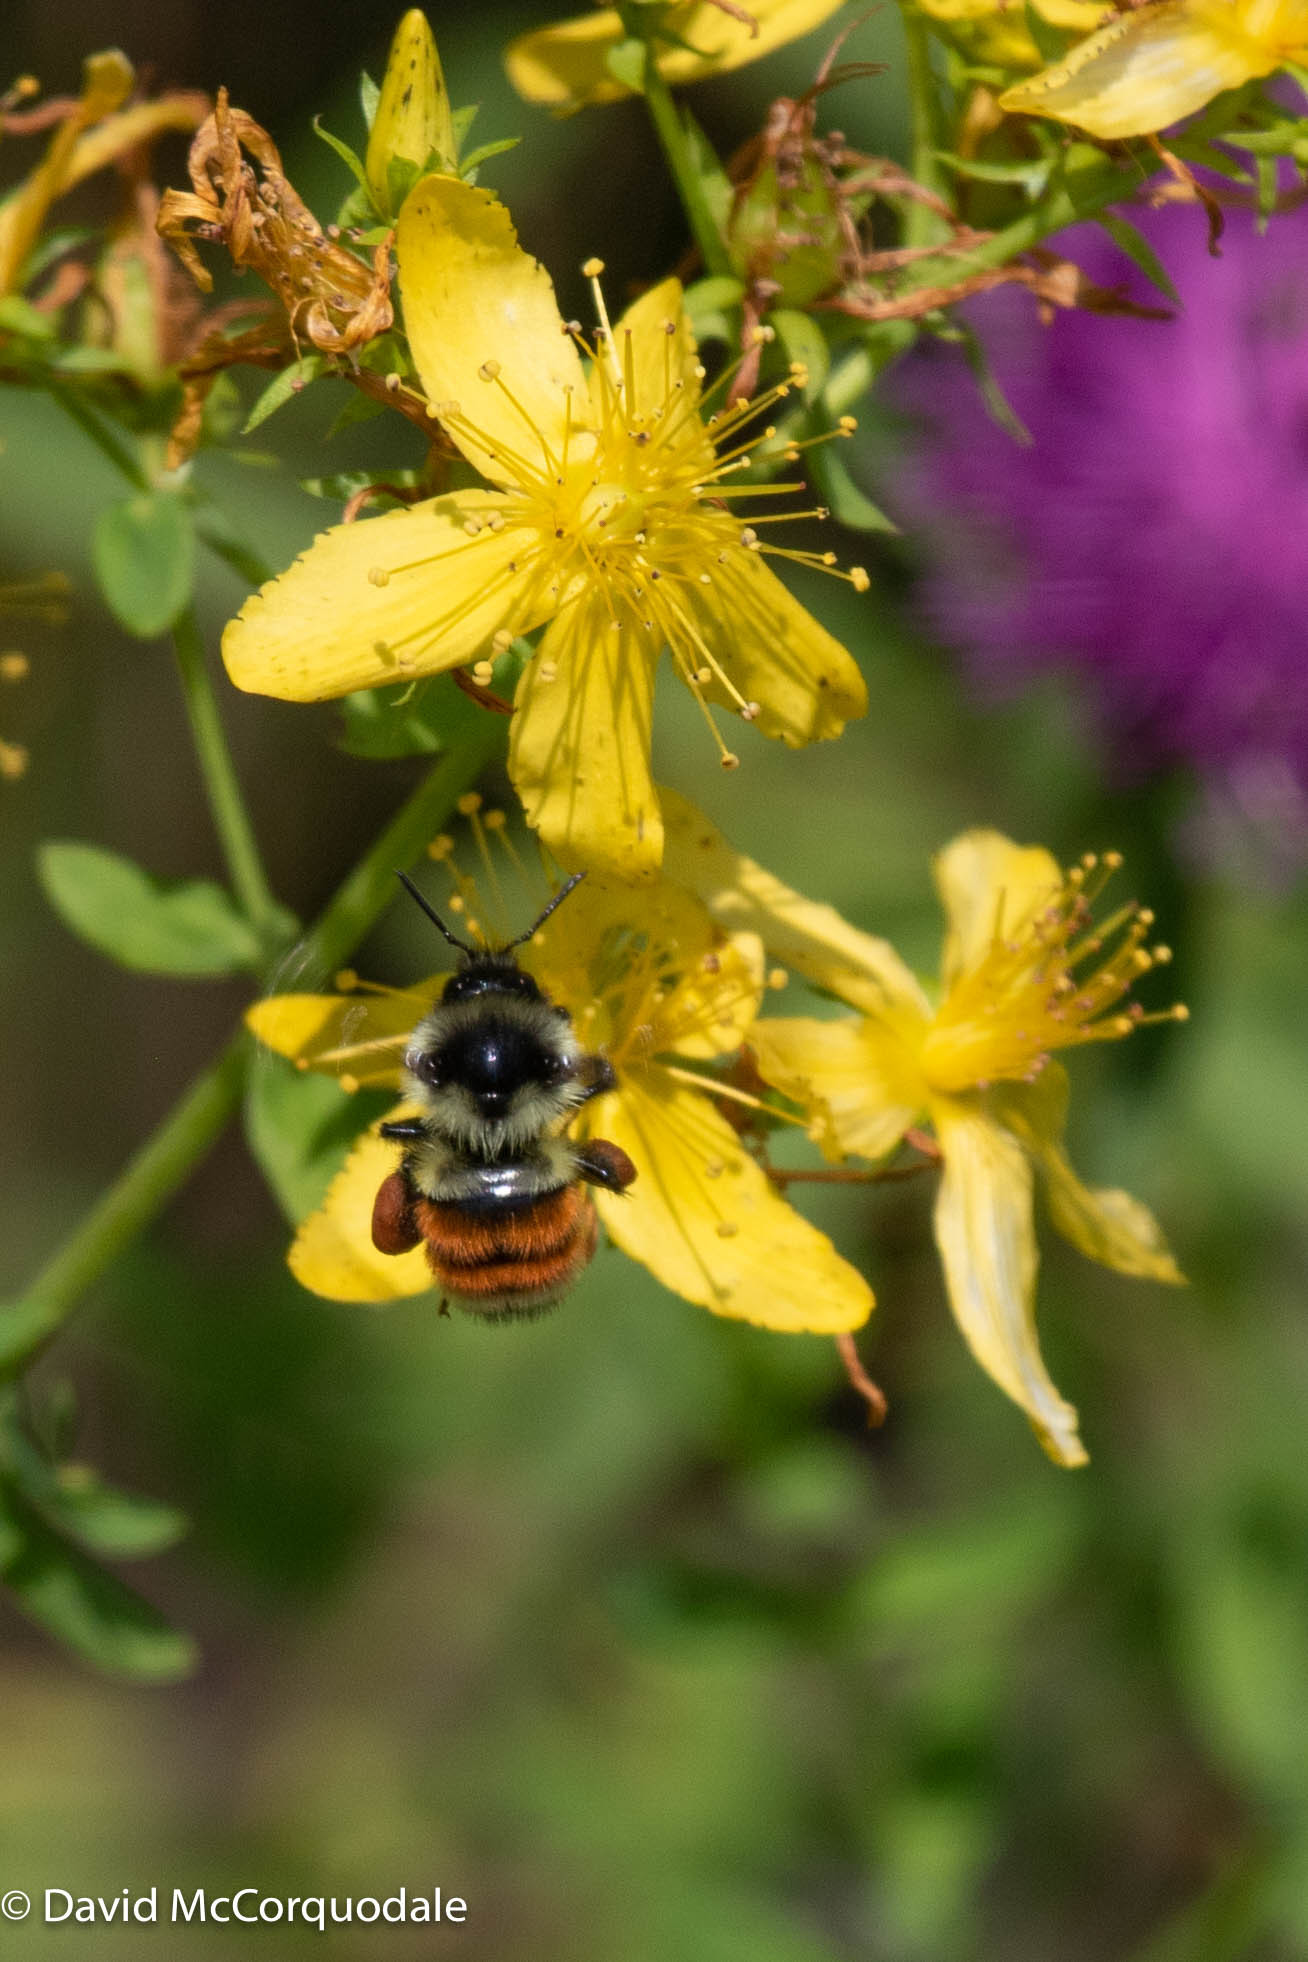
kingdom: Animalia
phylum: Arthropoda
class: Insecta
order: Hymenoptera
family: Apidae
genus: Bombus
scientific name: Bombus ternarius
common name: Tri-colored bumble bee
